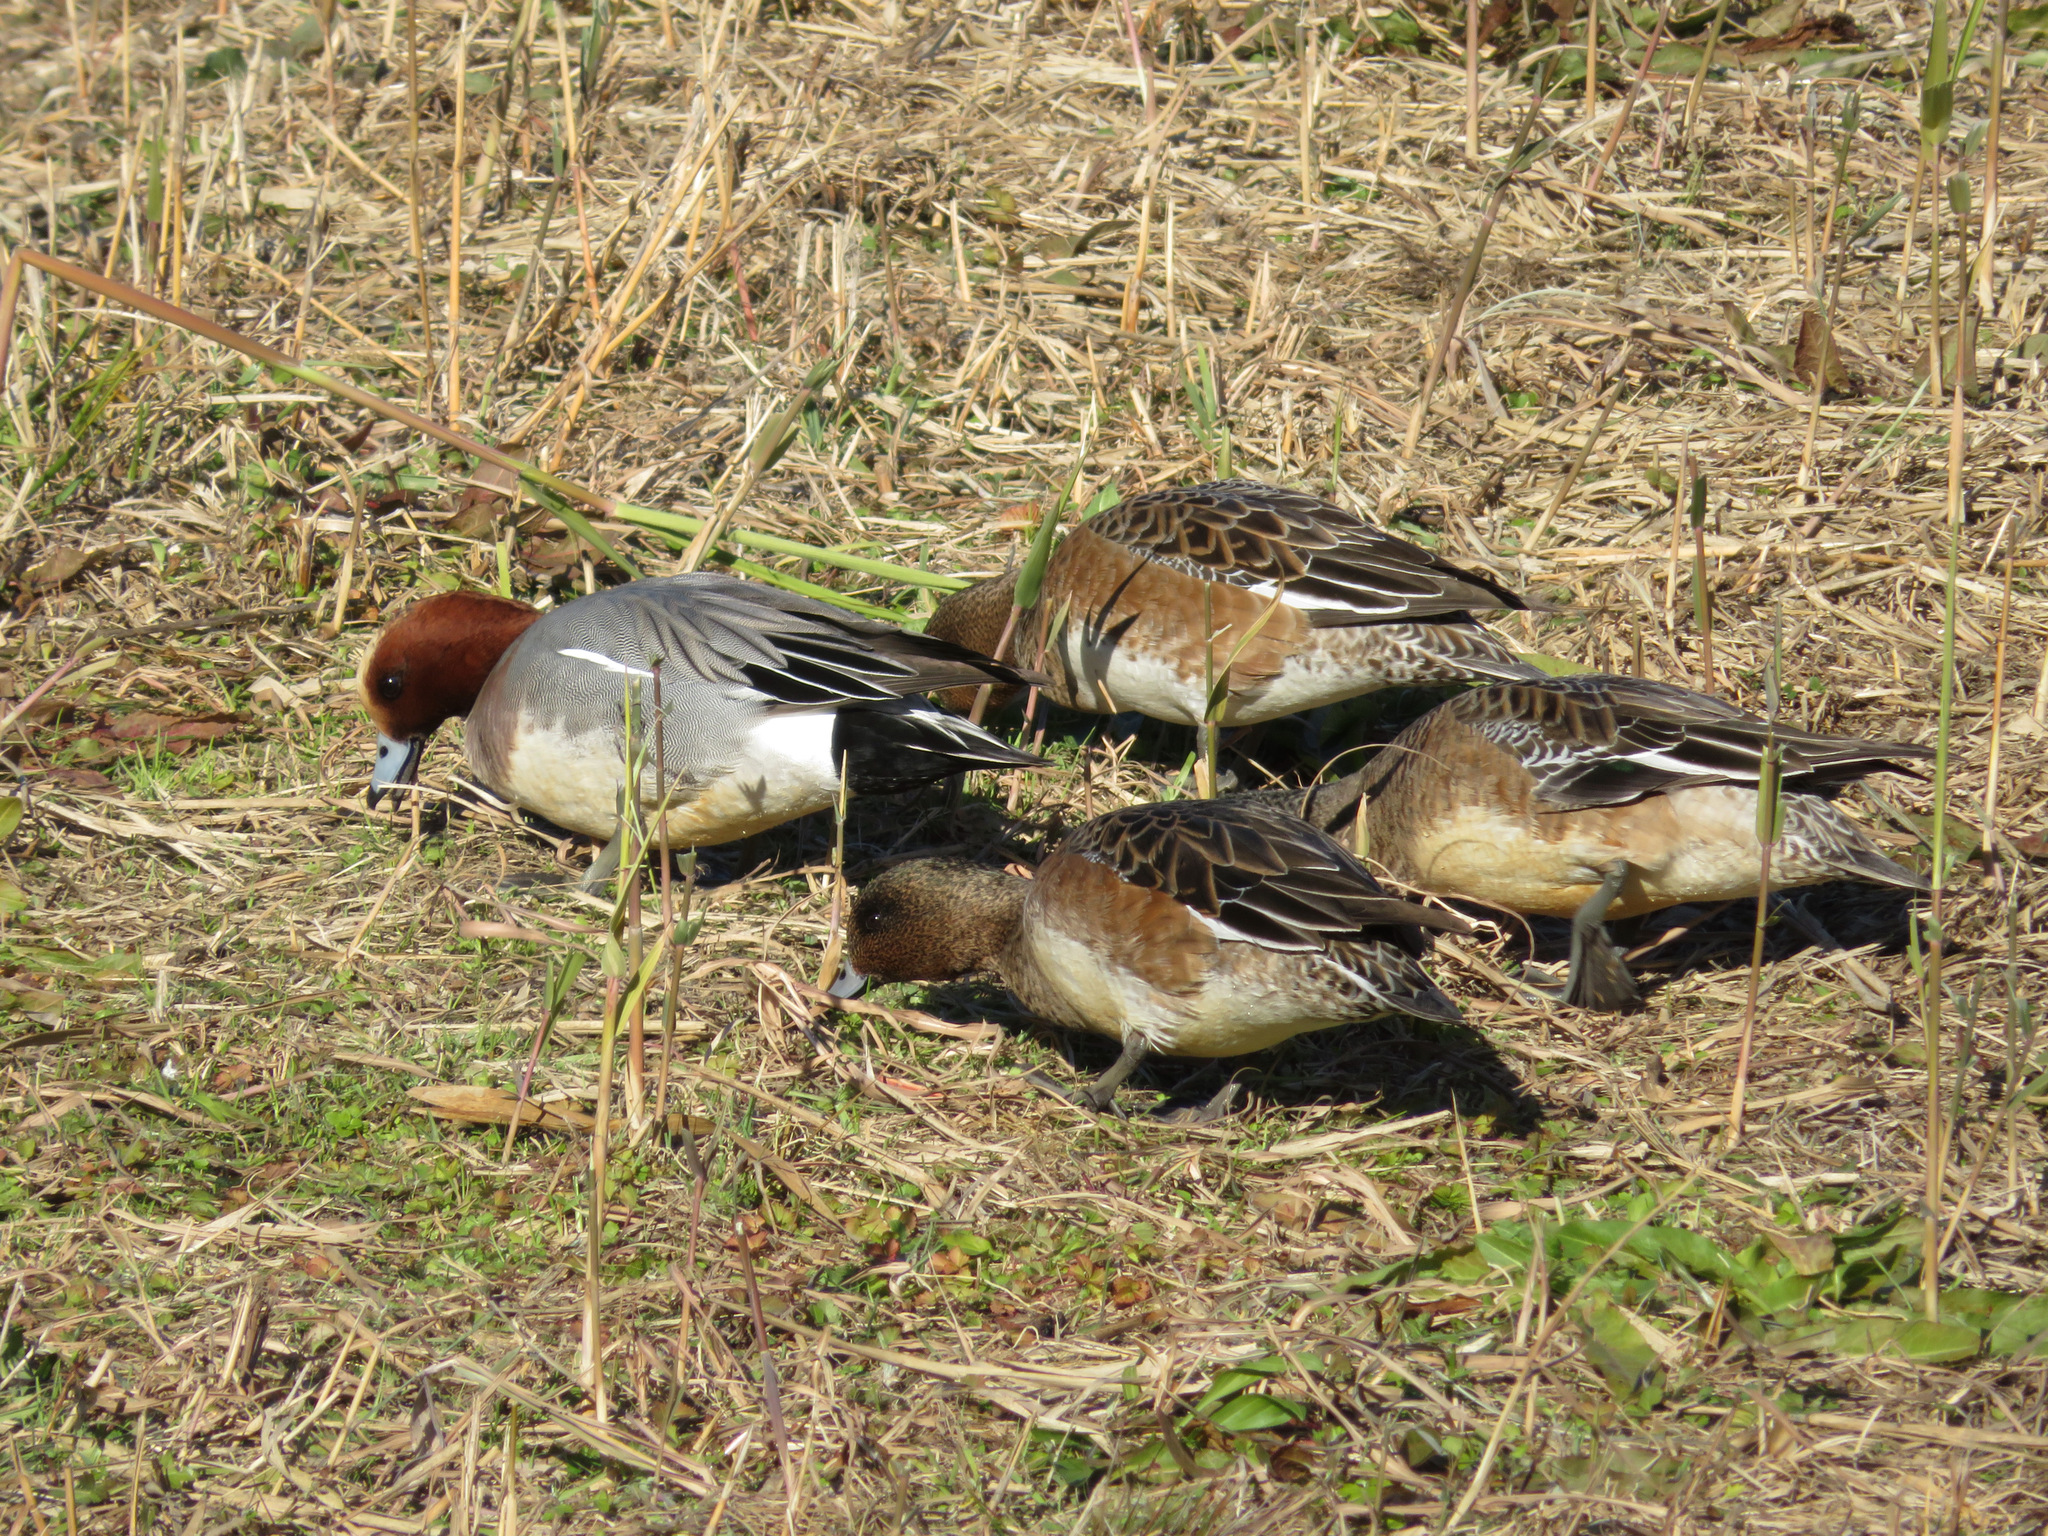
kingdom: Animalia
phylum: Chordata
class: Aves
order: Anseriformes
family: Anatidae
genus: Mareca
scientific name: Mareca penelope
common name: Eurasian wigeon
